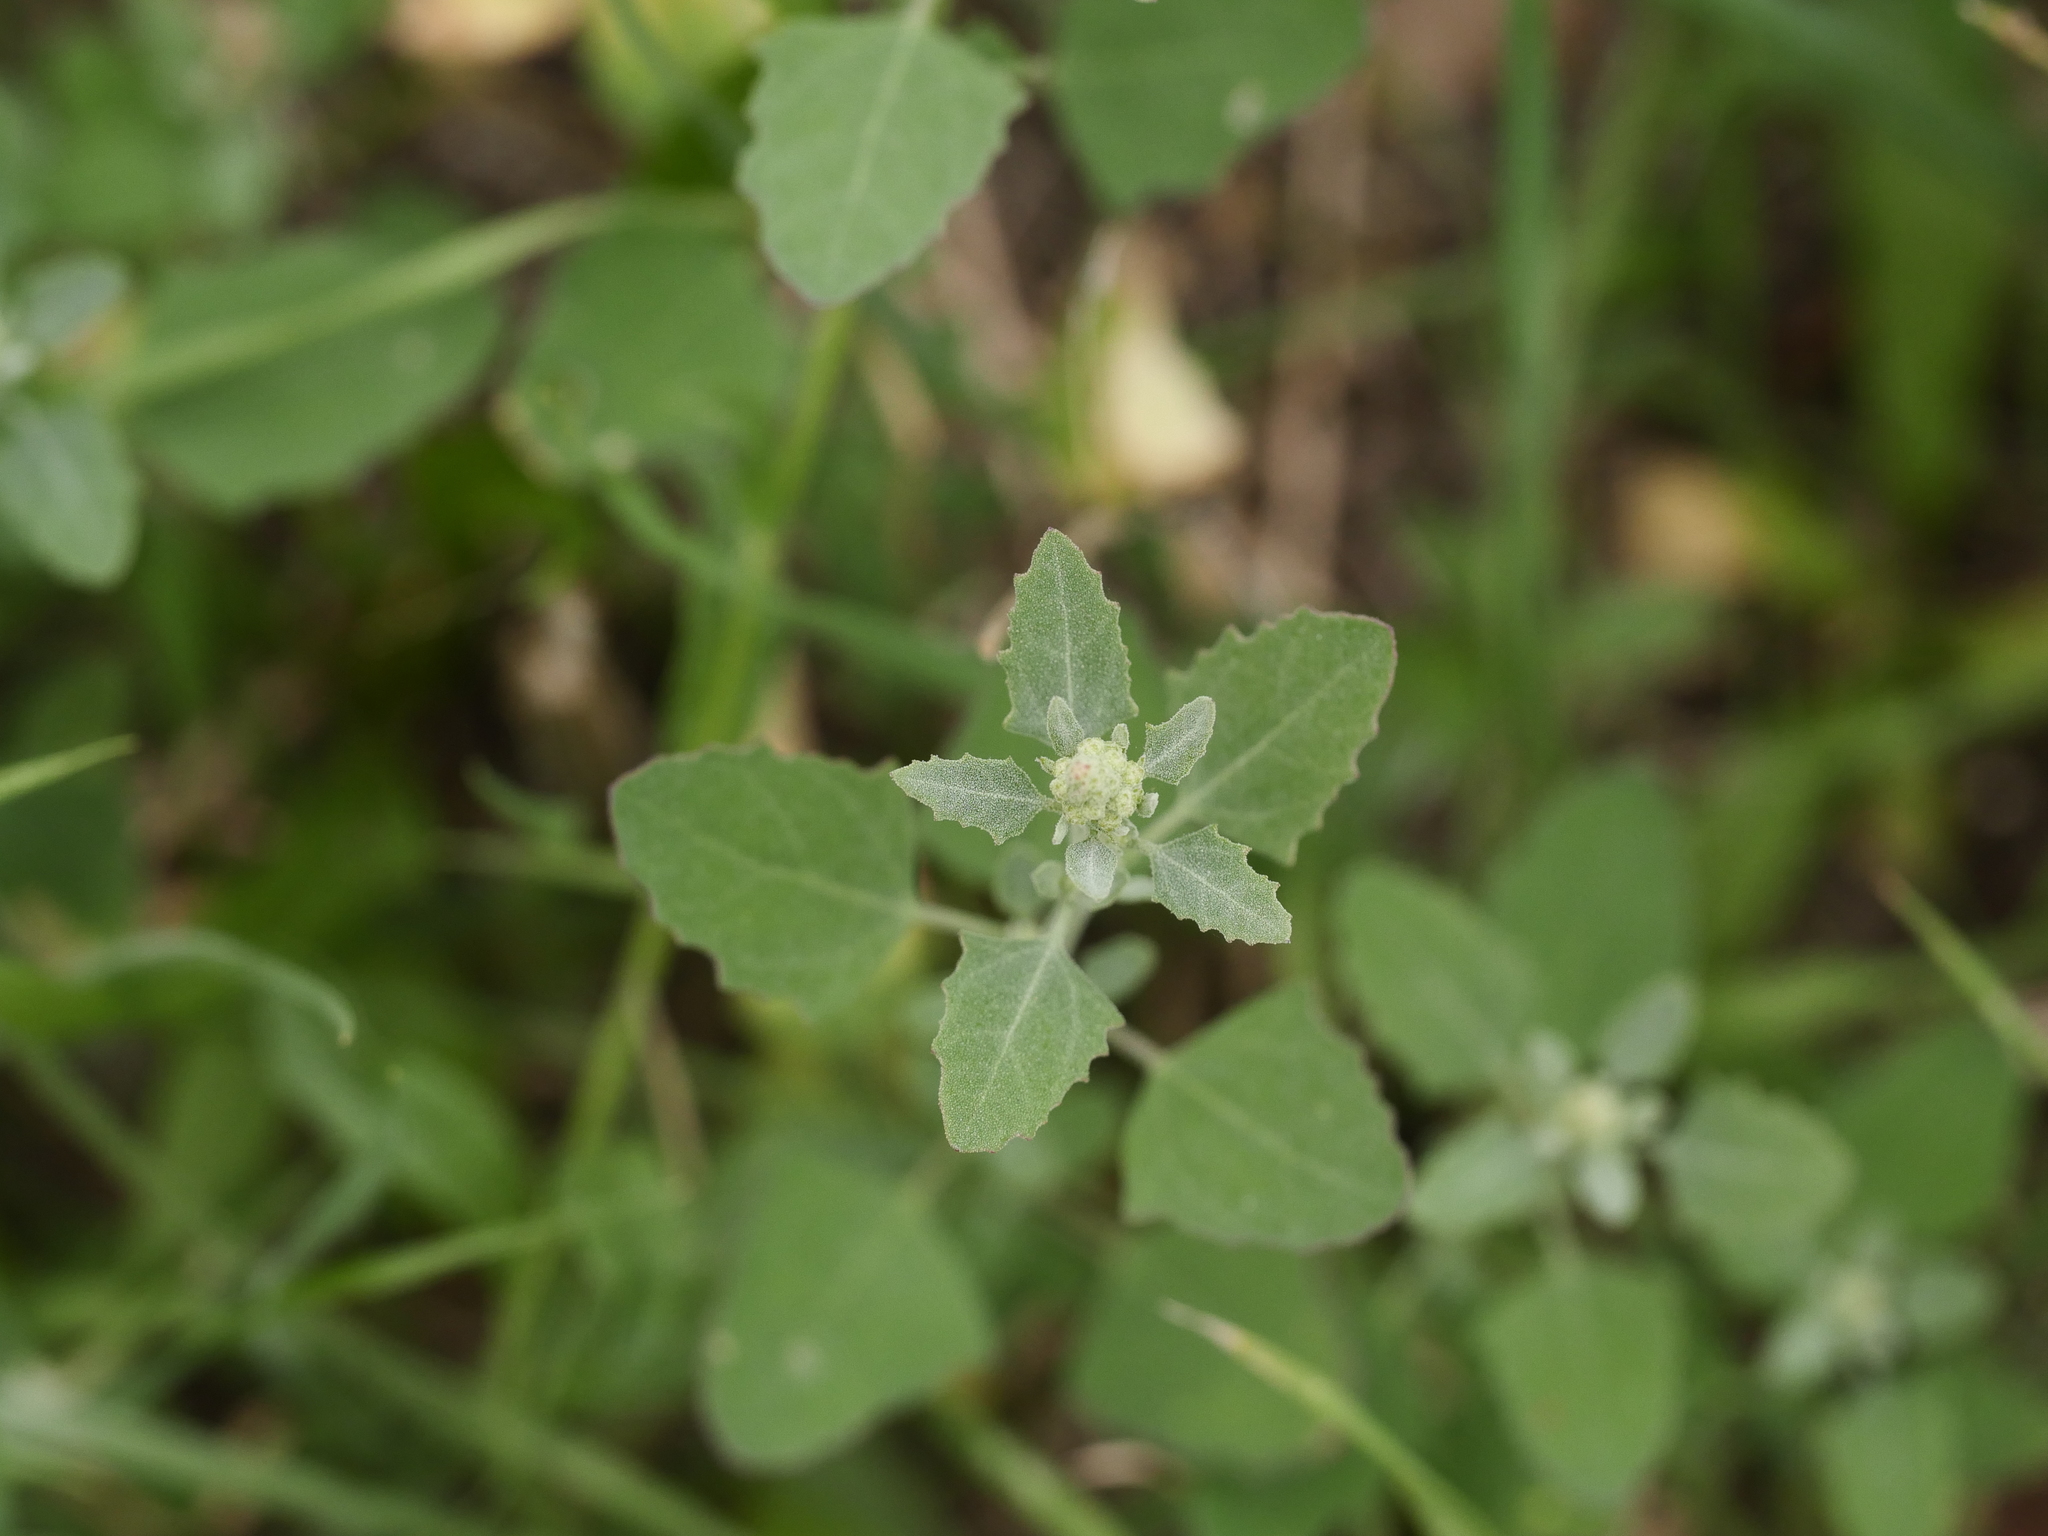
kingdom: Plantae
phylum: Tracheophyta
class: Magnoliopsida
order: Caryophyllales
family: Amaranthaceae
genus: Chenopodium
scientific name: Chenopodium album
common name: Fat-hen
